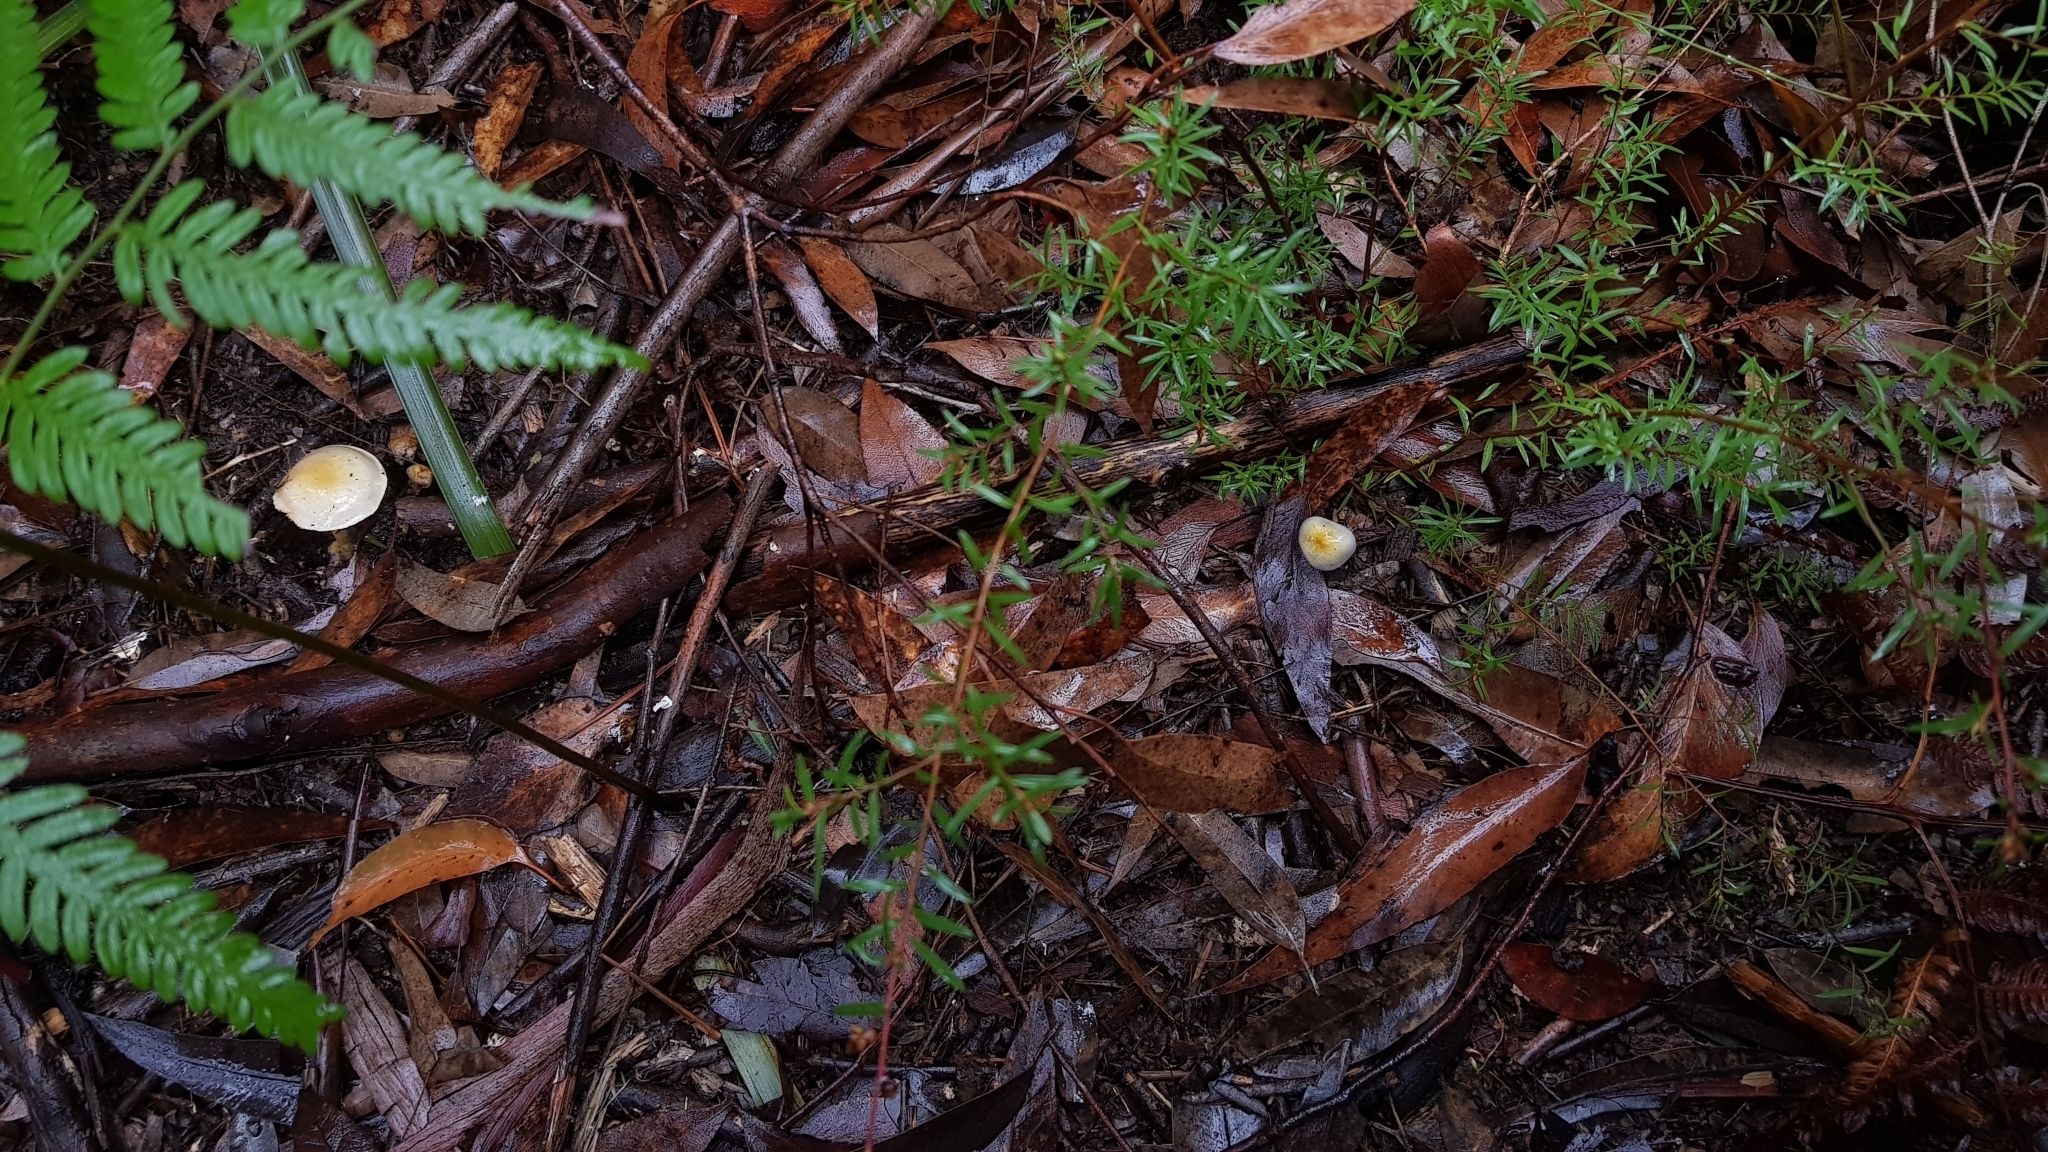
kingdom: Fungi
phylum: Basidiomycota
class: Agaricomycetes
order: Agaricales
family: Cortinariaceae
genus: Cortinarius
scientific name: Cortinarius rotundisporus
